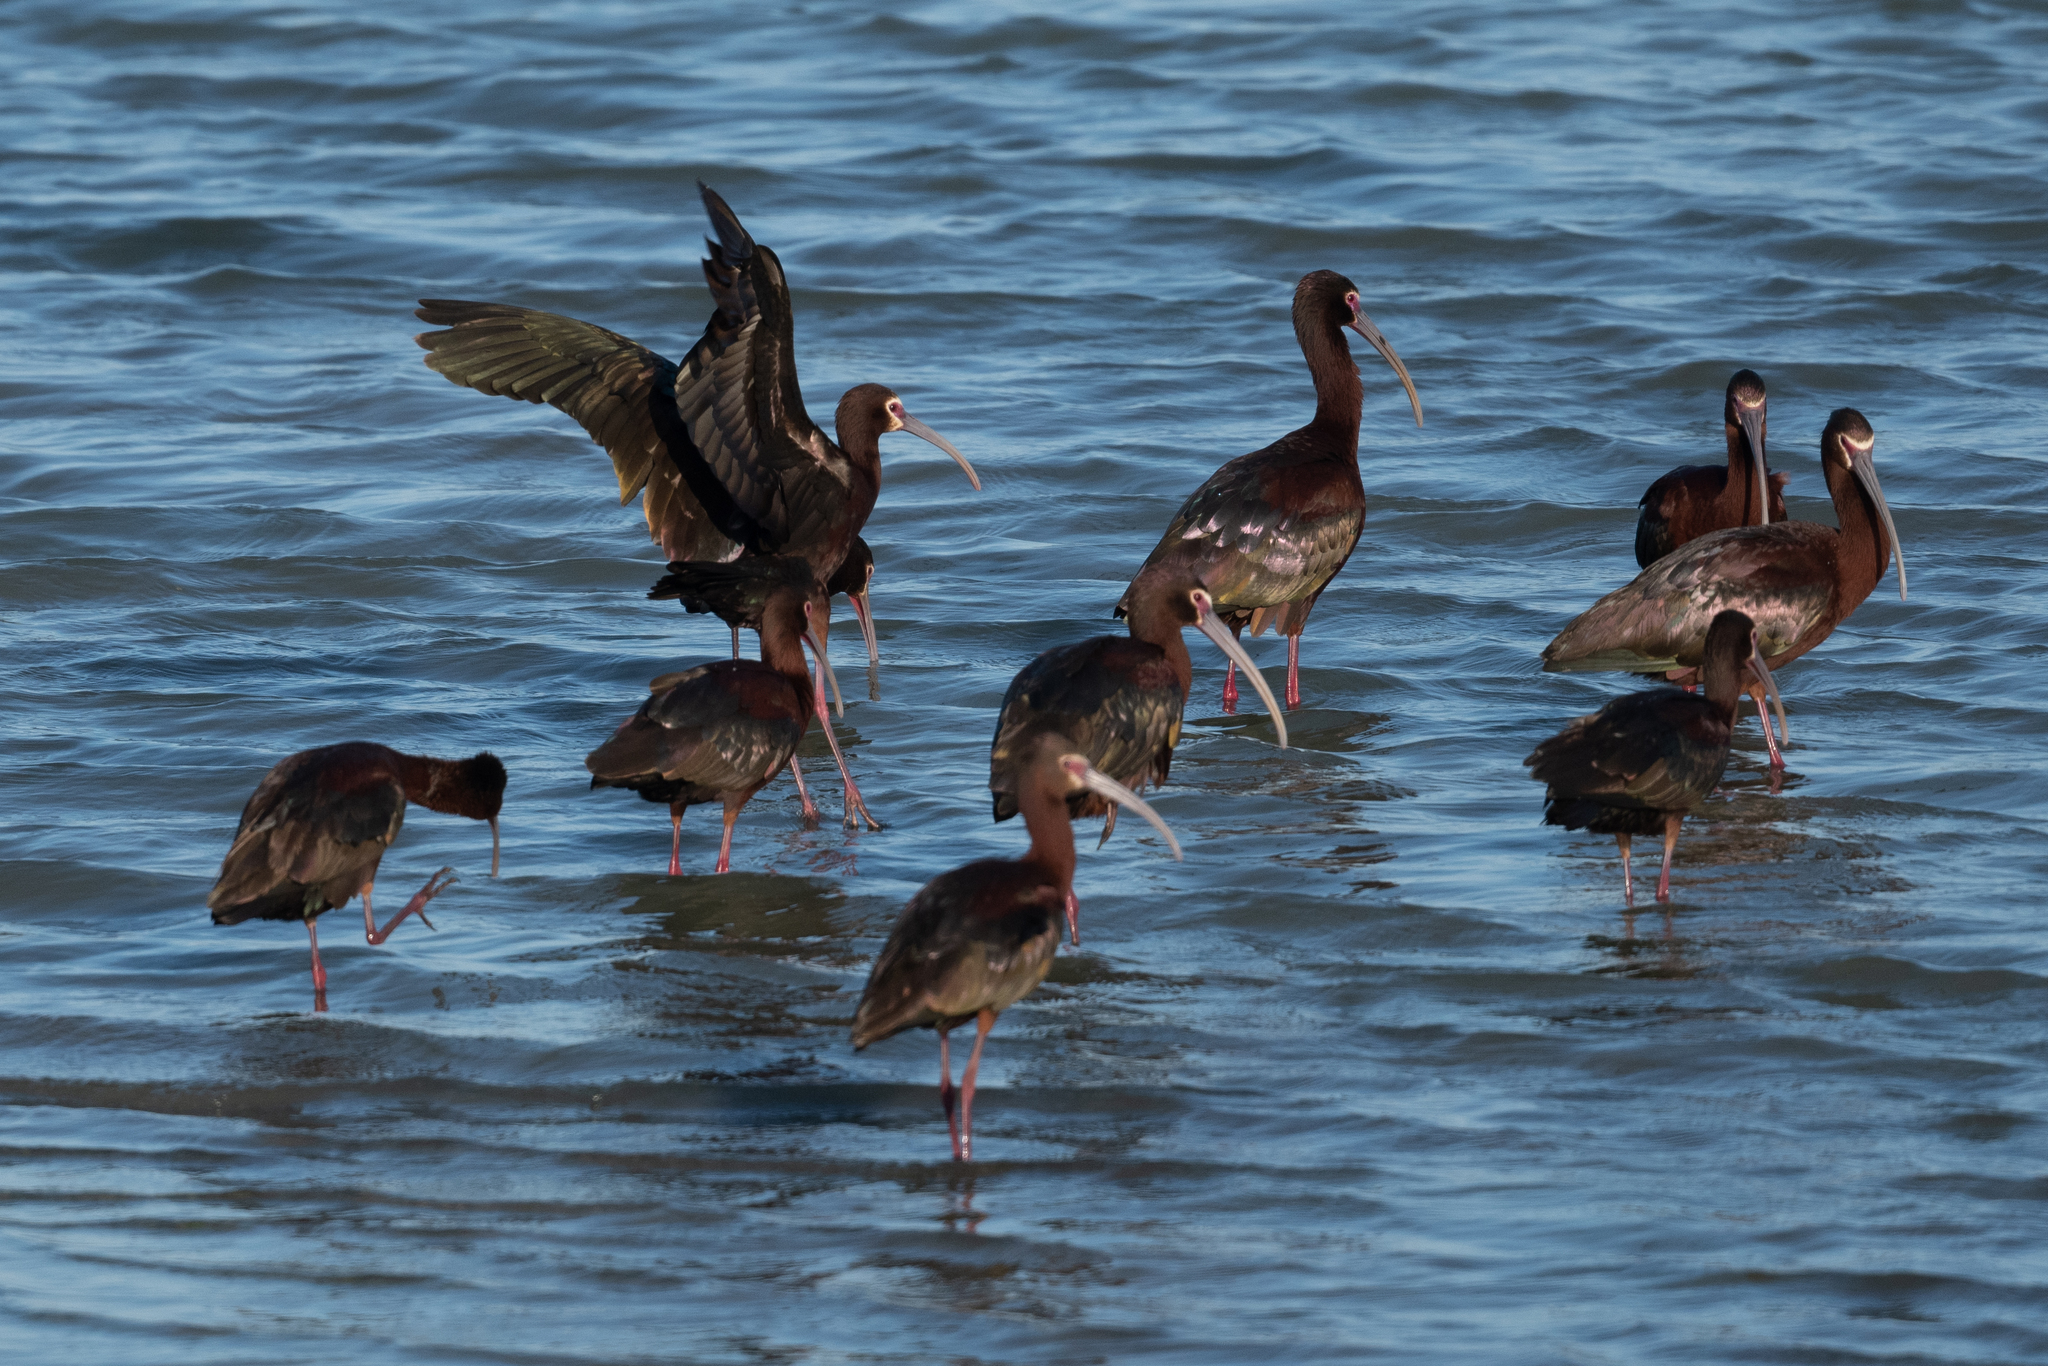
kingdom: Animalia
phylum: Chordata
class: Aves
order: Pelecaniformes
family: Threskiornithidae
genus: Plegadis
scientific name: Plegadis chihi
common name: White-faced ibis
